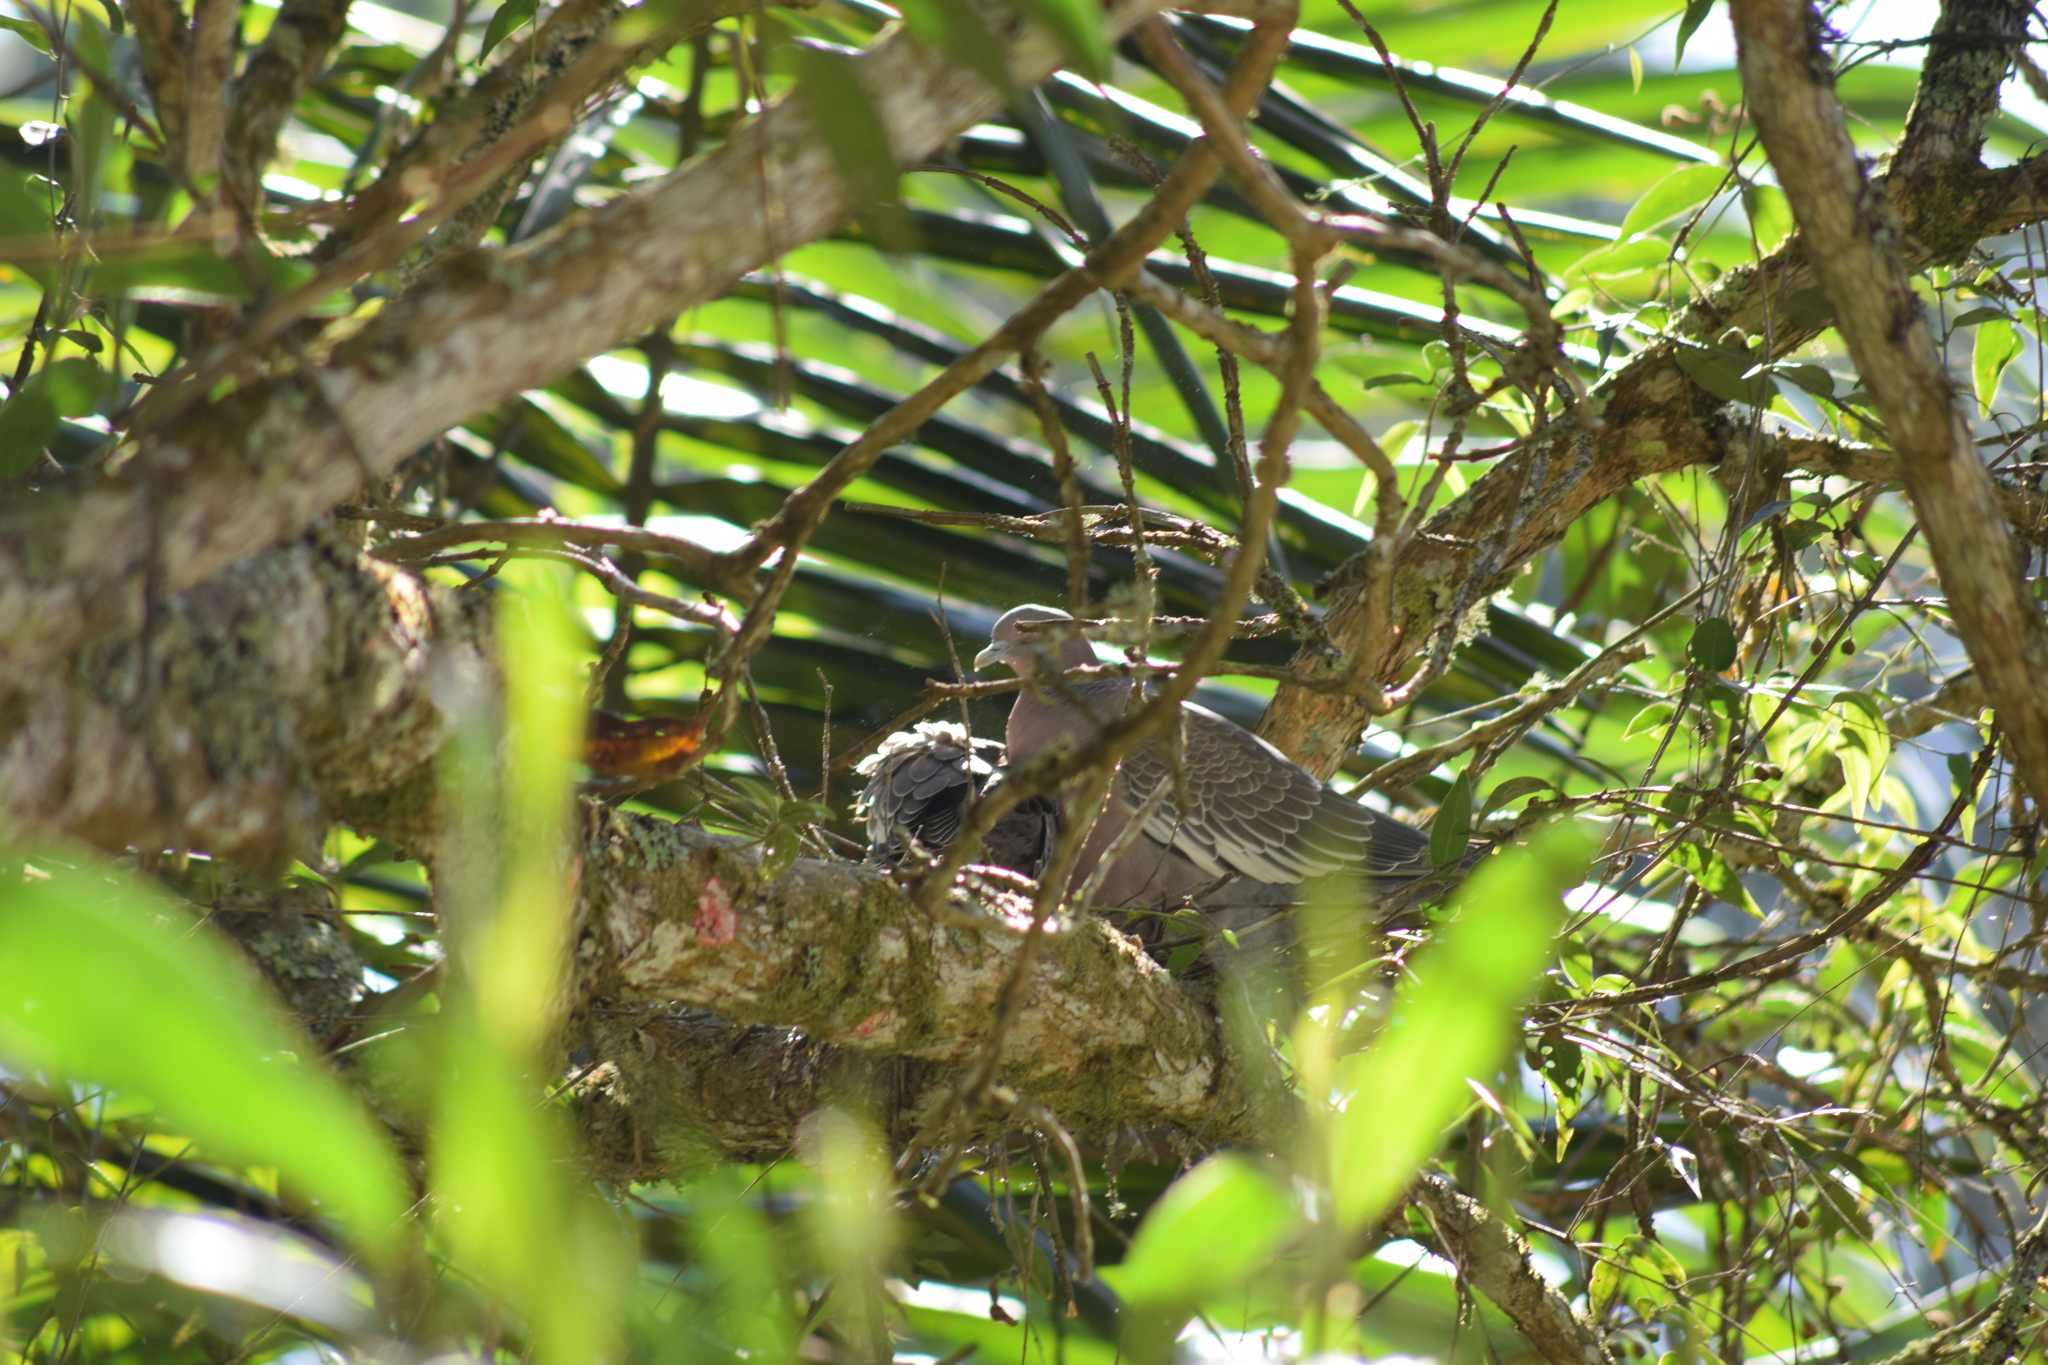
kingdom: Animalia
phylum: Chordata
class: Aves
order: Columbiformes
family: Columbidae
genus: Patagioenas
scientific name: Patagioenas picazuro
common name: Picazuro pigeon
